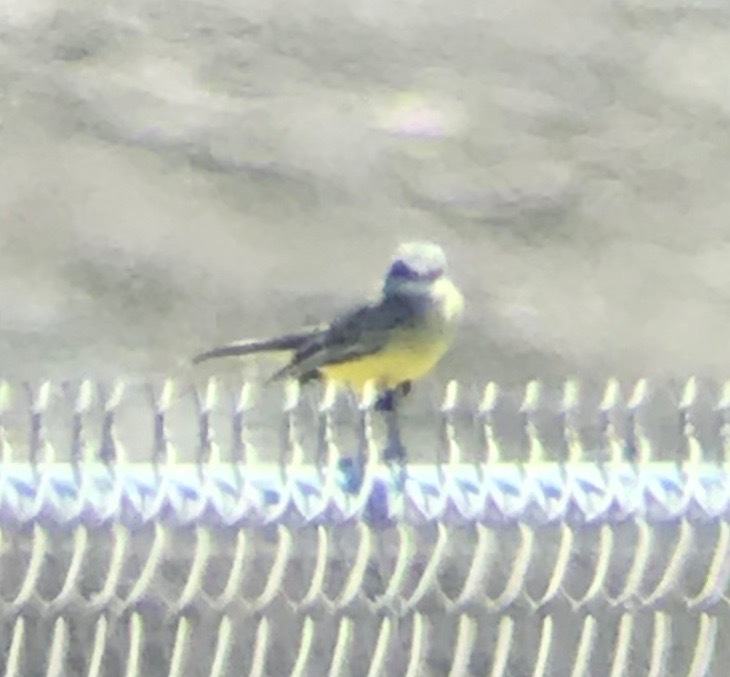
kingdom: Animalia
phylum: Chordata
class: Aves
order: Passeriformes
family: Tyrannidae
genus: Tyrannus
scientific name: Tyrannus melancholicus
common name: Tropical kingbird
